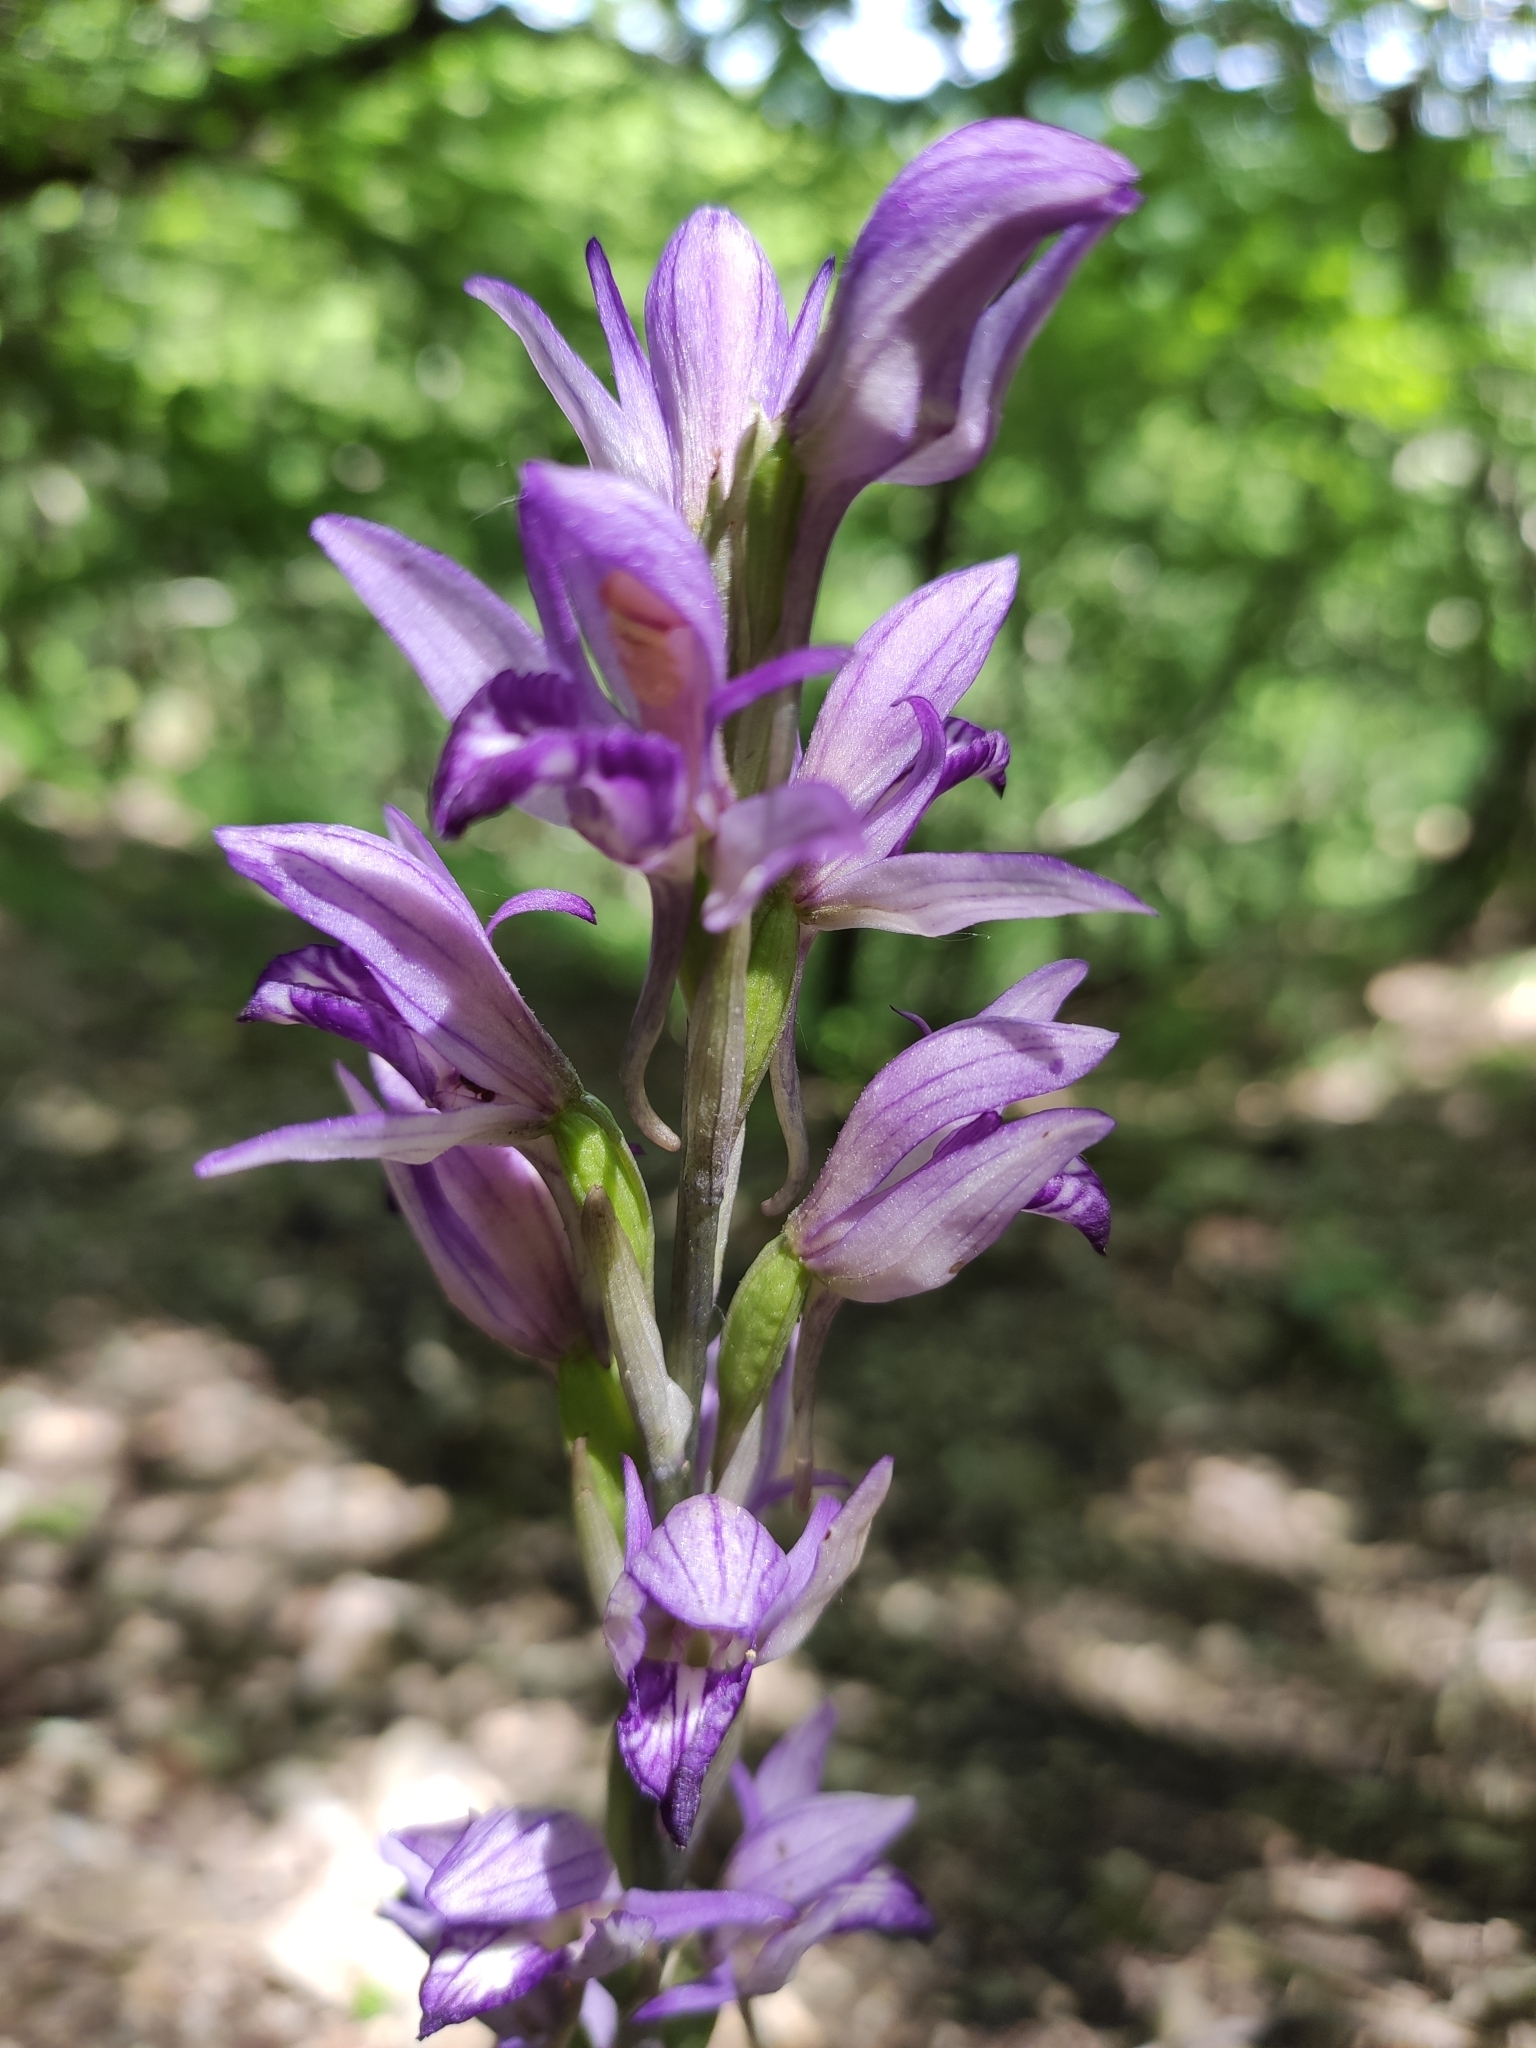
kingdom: Plantae
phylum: Tracheophyta
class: Liliopsida
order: Asparagales
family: Orchidaceae
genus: Limodorum
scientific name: Limodorum abortivum
